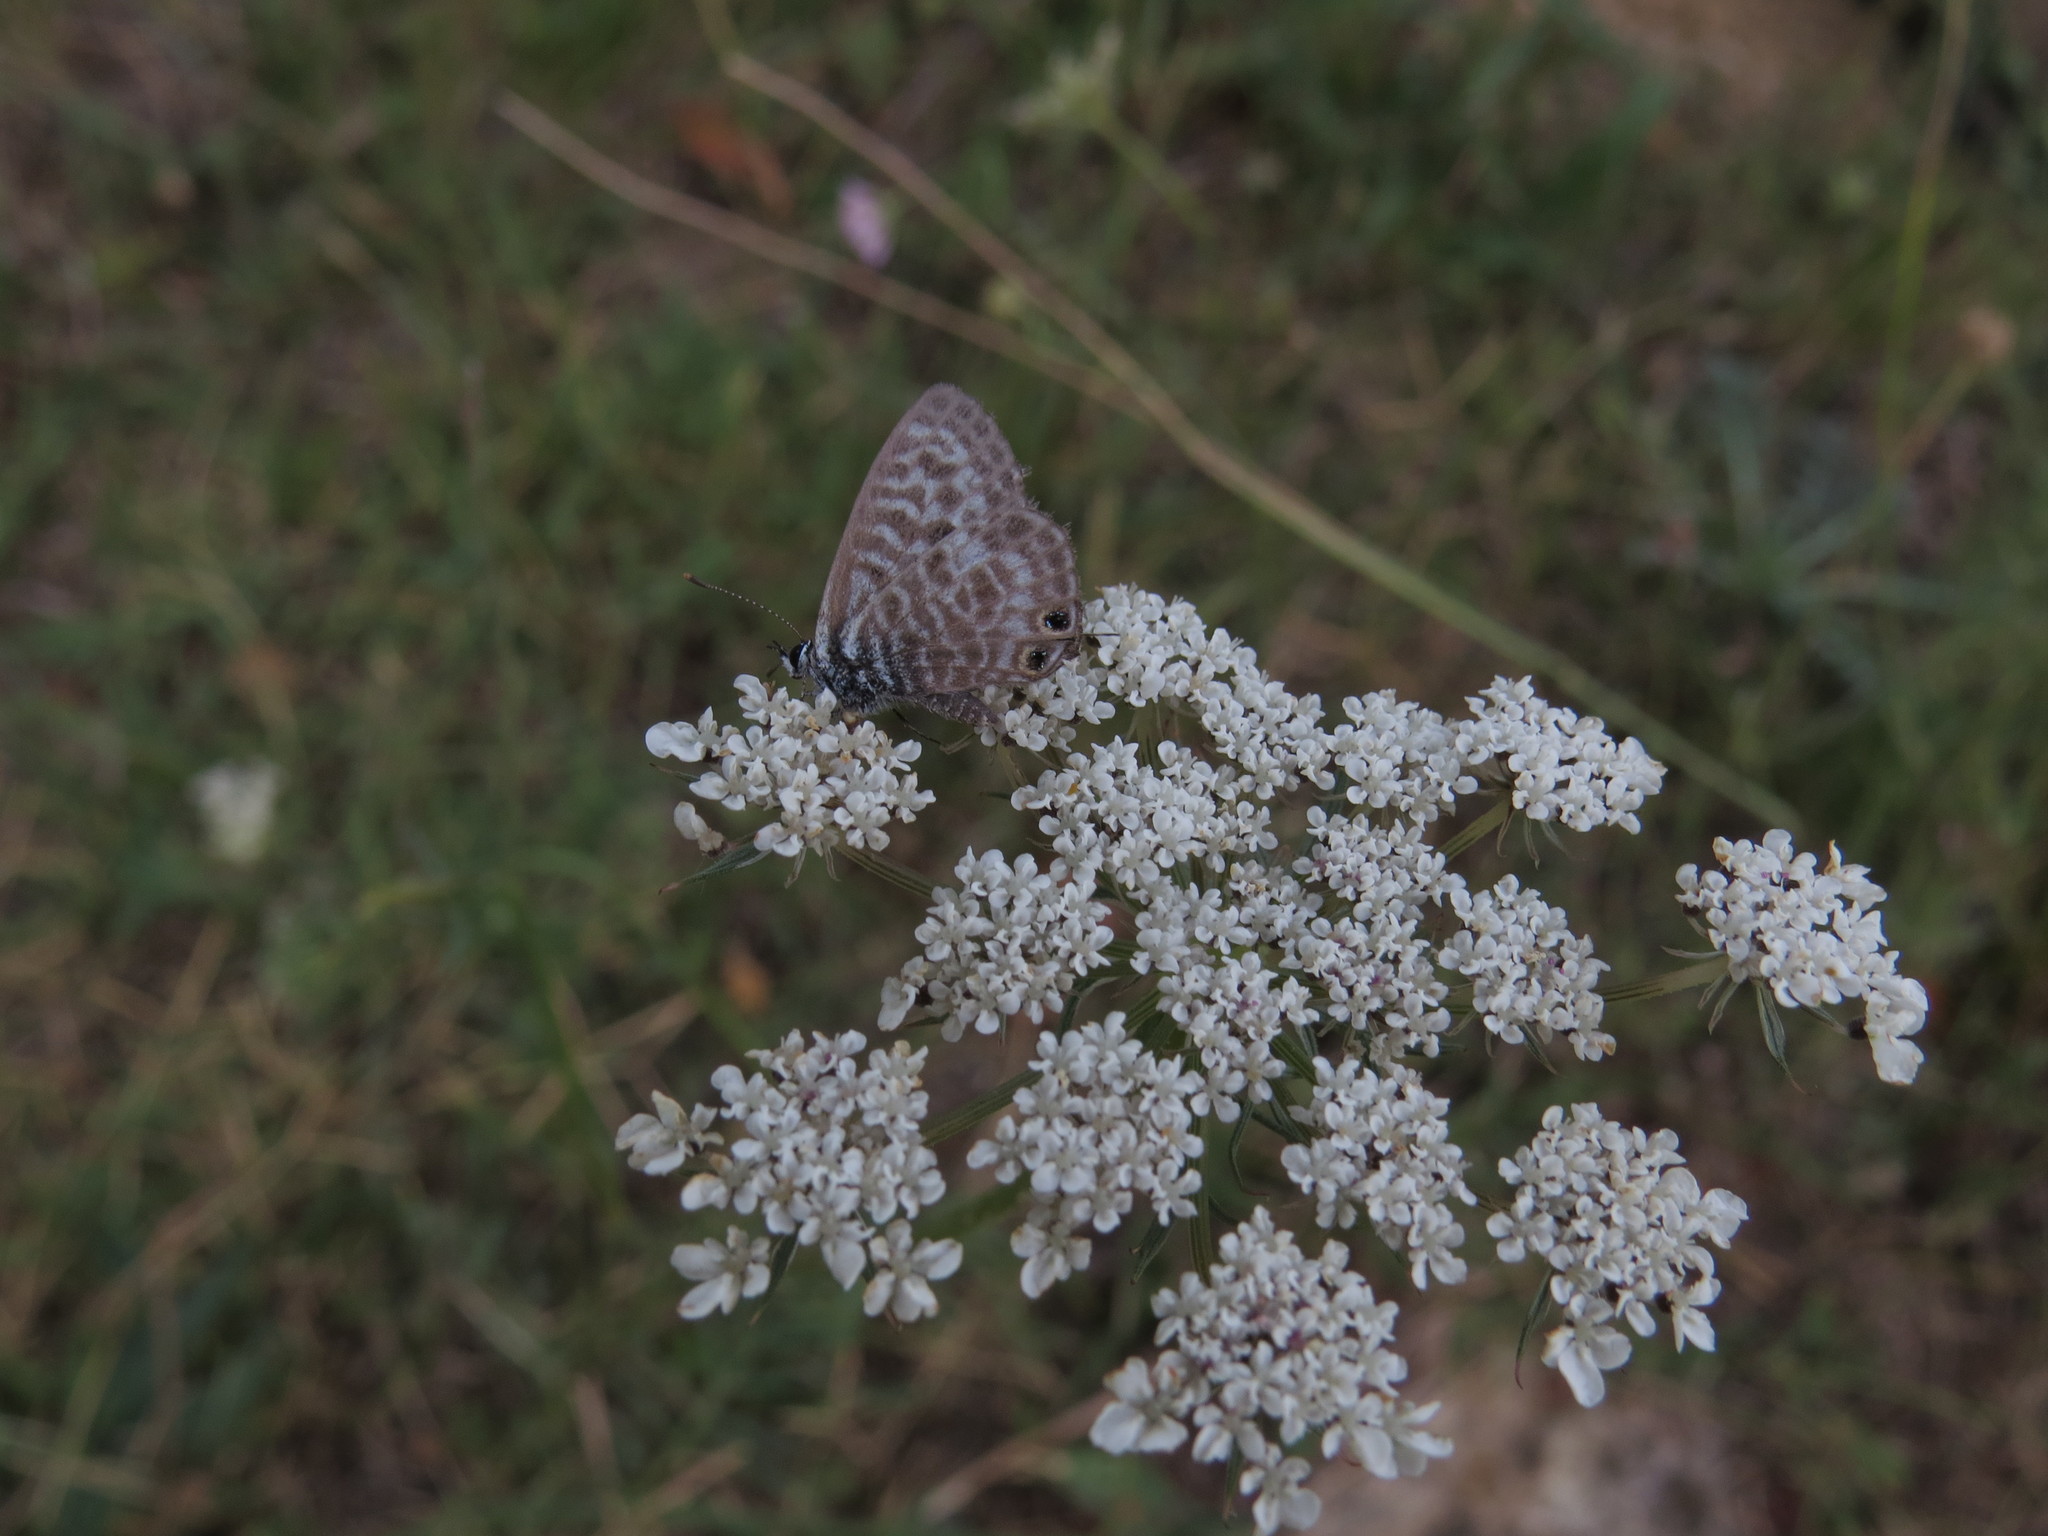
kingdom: Animalia
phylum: Arthropoda
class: Insecta
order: Lepidoptera
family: Lycaenidae
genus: Leptotes
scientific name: Leptotes pirithous
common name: Lang's short-tailed blue
